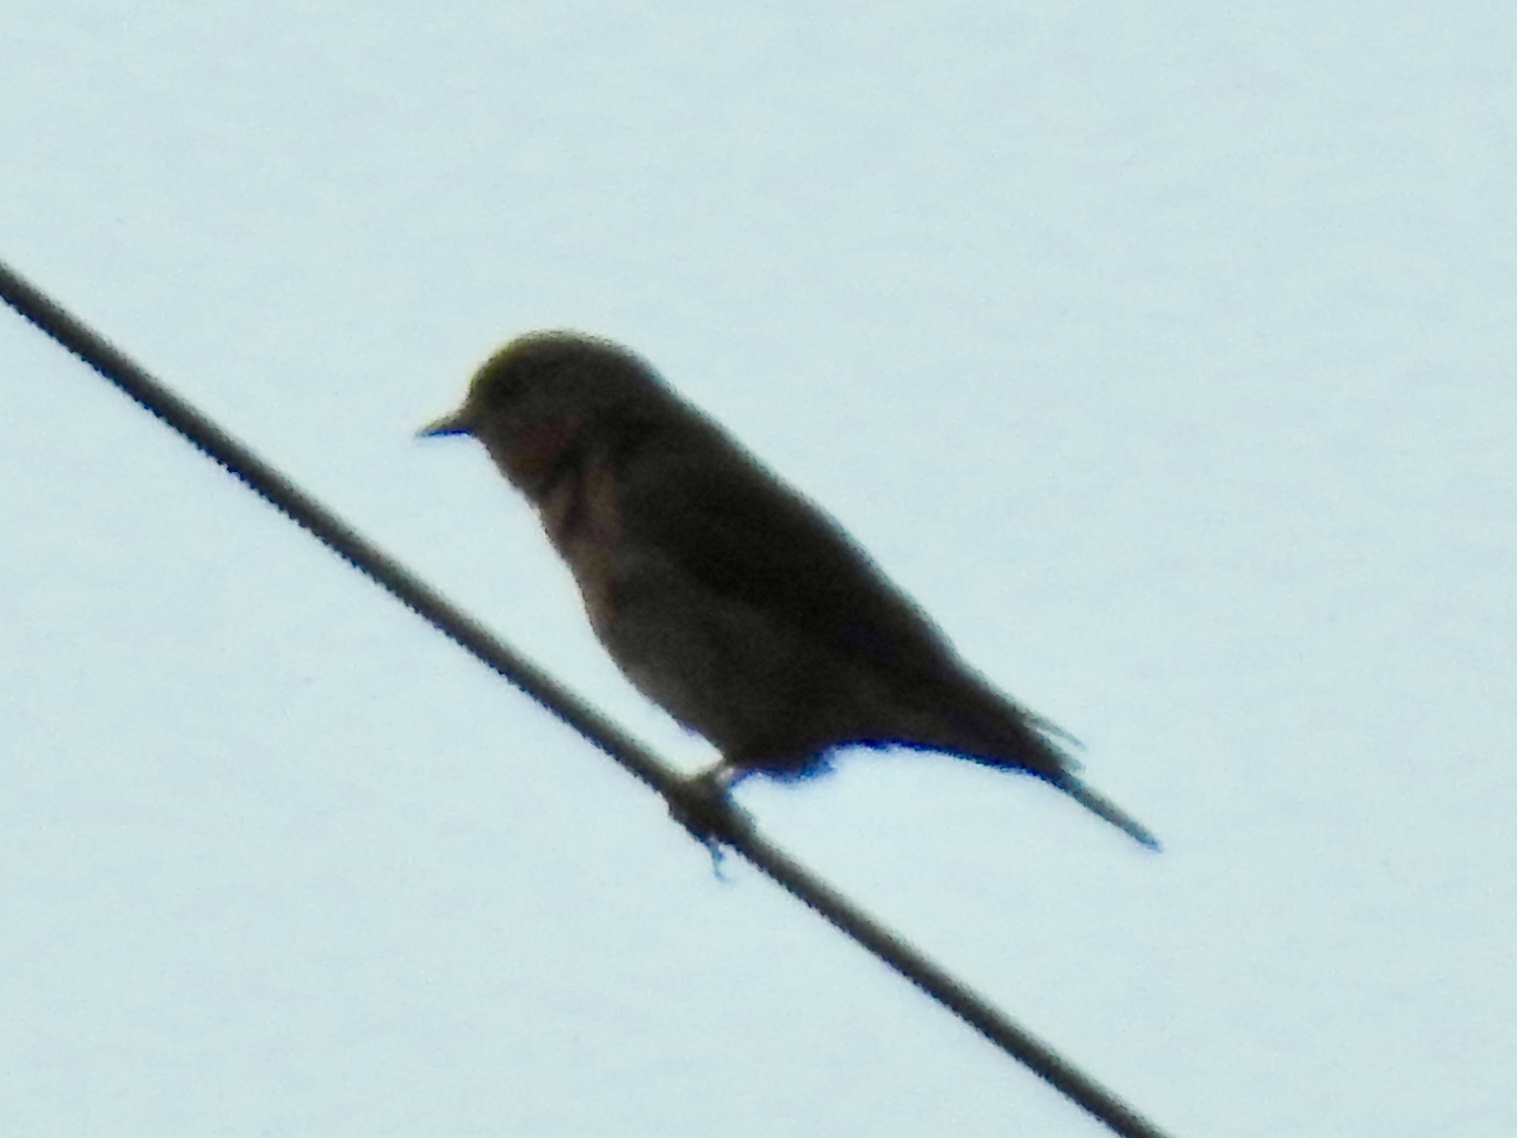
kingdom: Animalia
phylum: Chordata
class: Aves
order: Passeriformes
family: Turdidae
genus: Sialia
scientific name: Sialia sialis
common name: Eastern bluebird
